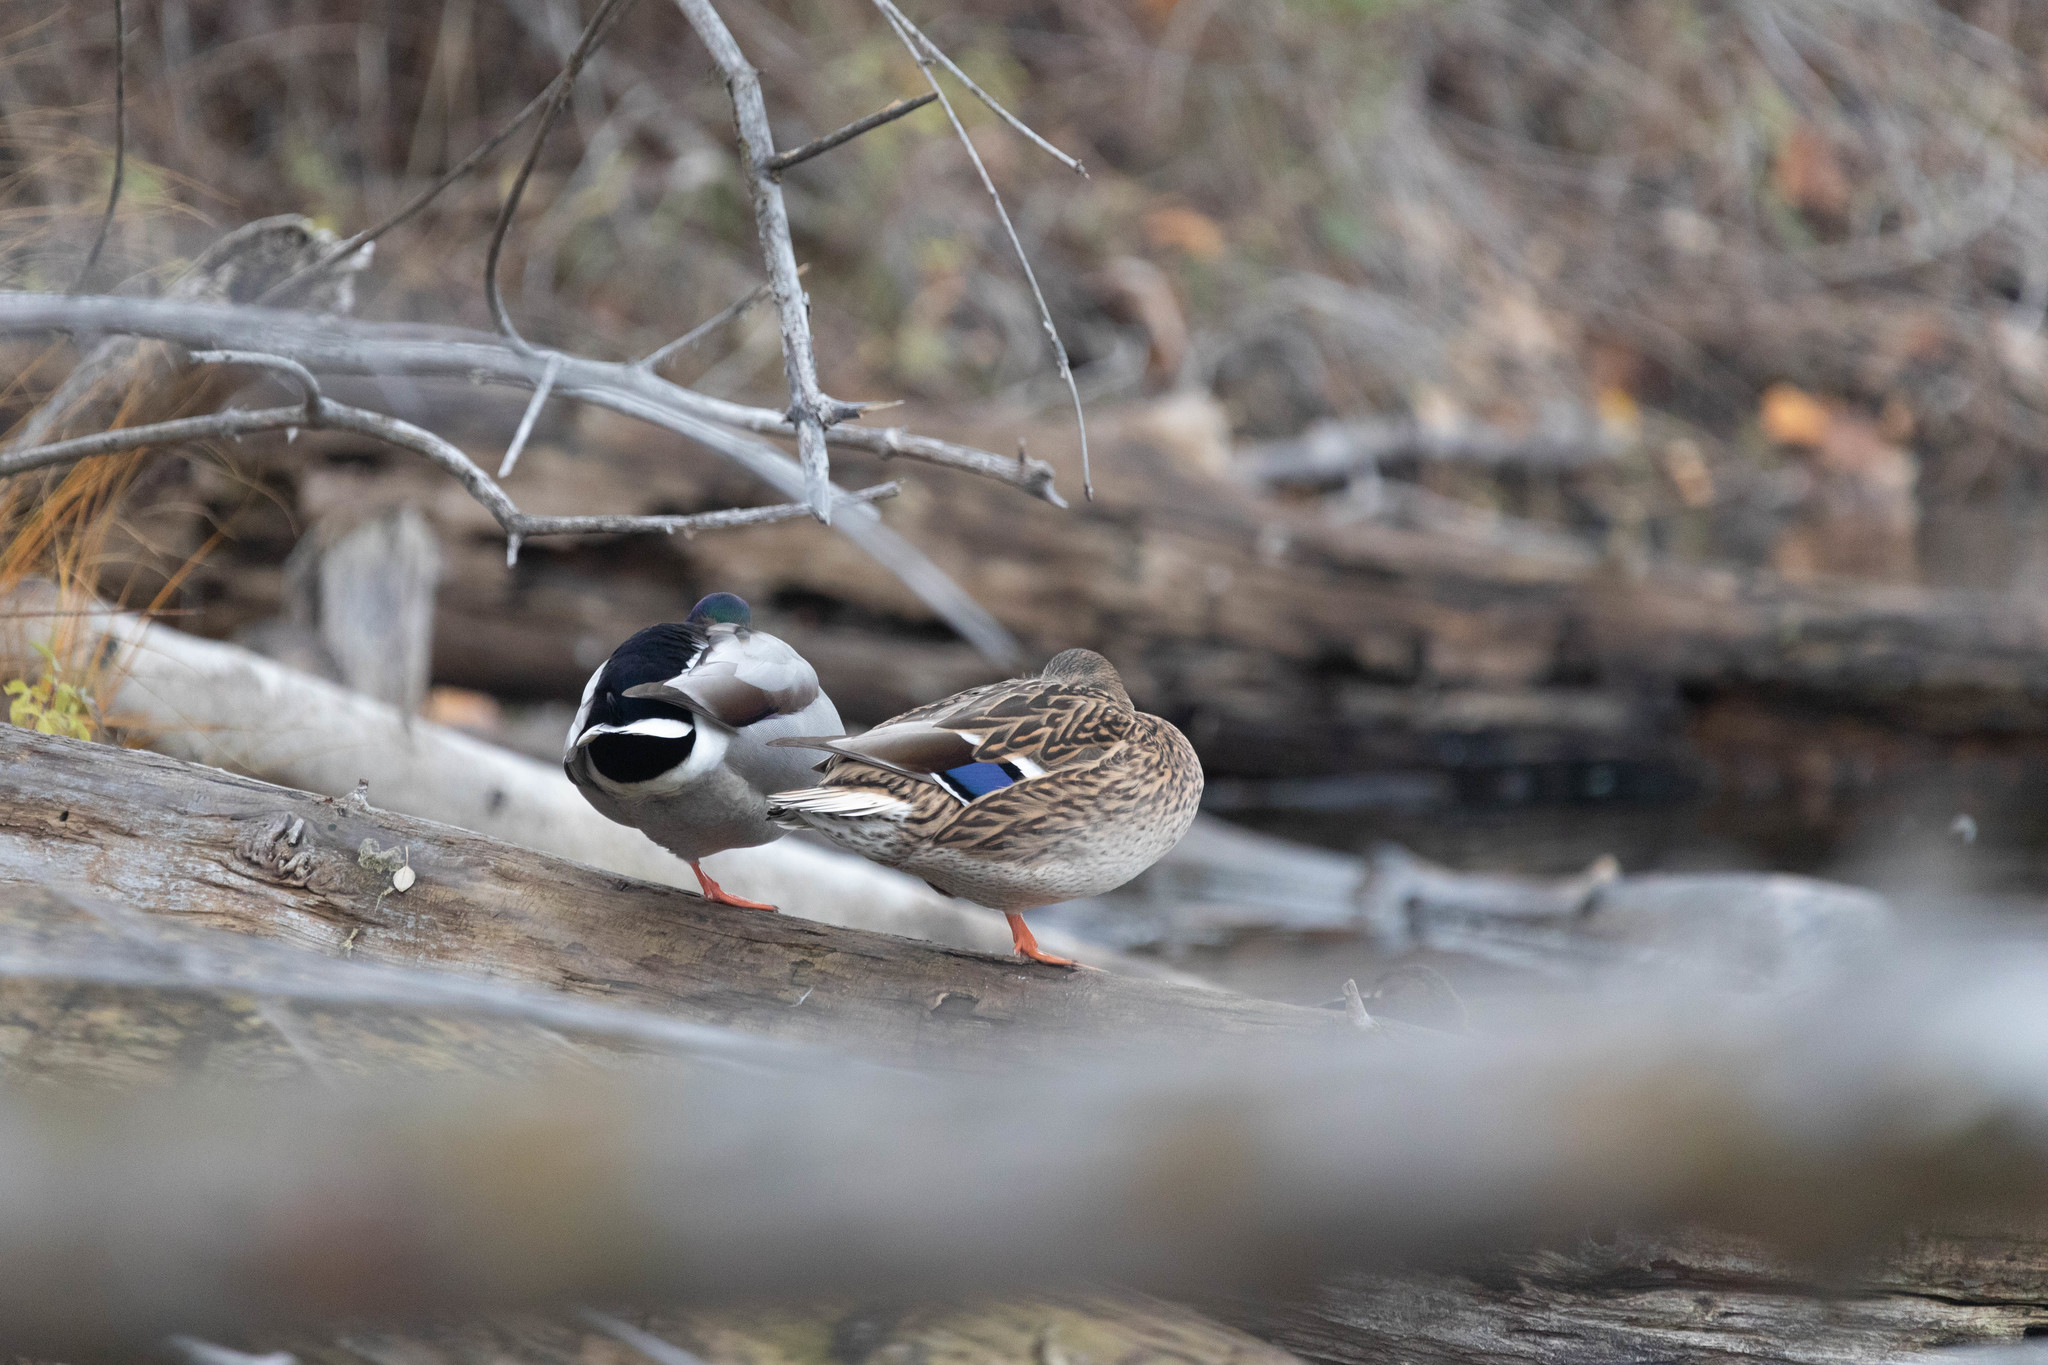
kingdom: Animalia
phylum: Chordata
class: Aves
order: Anseriformes
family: Anatidae
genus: Anas
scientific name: Anas platyrhynchos
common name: Mallard
